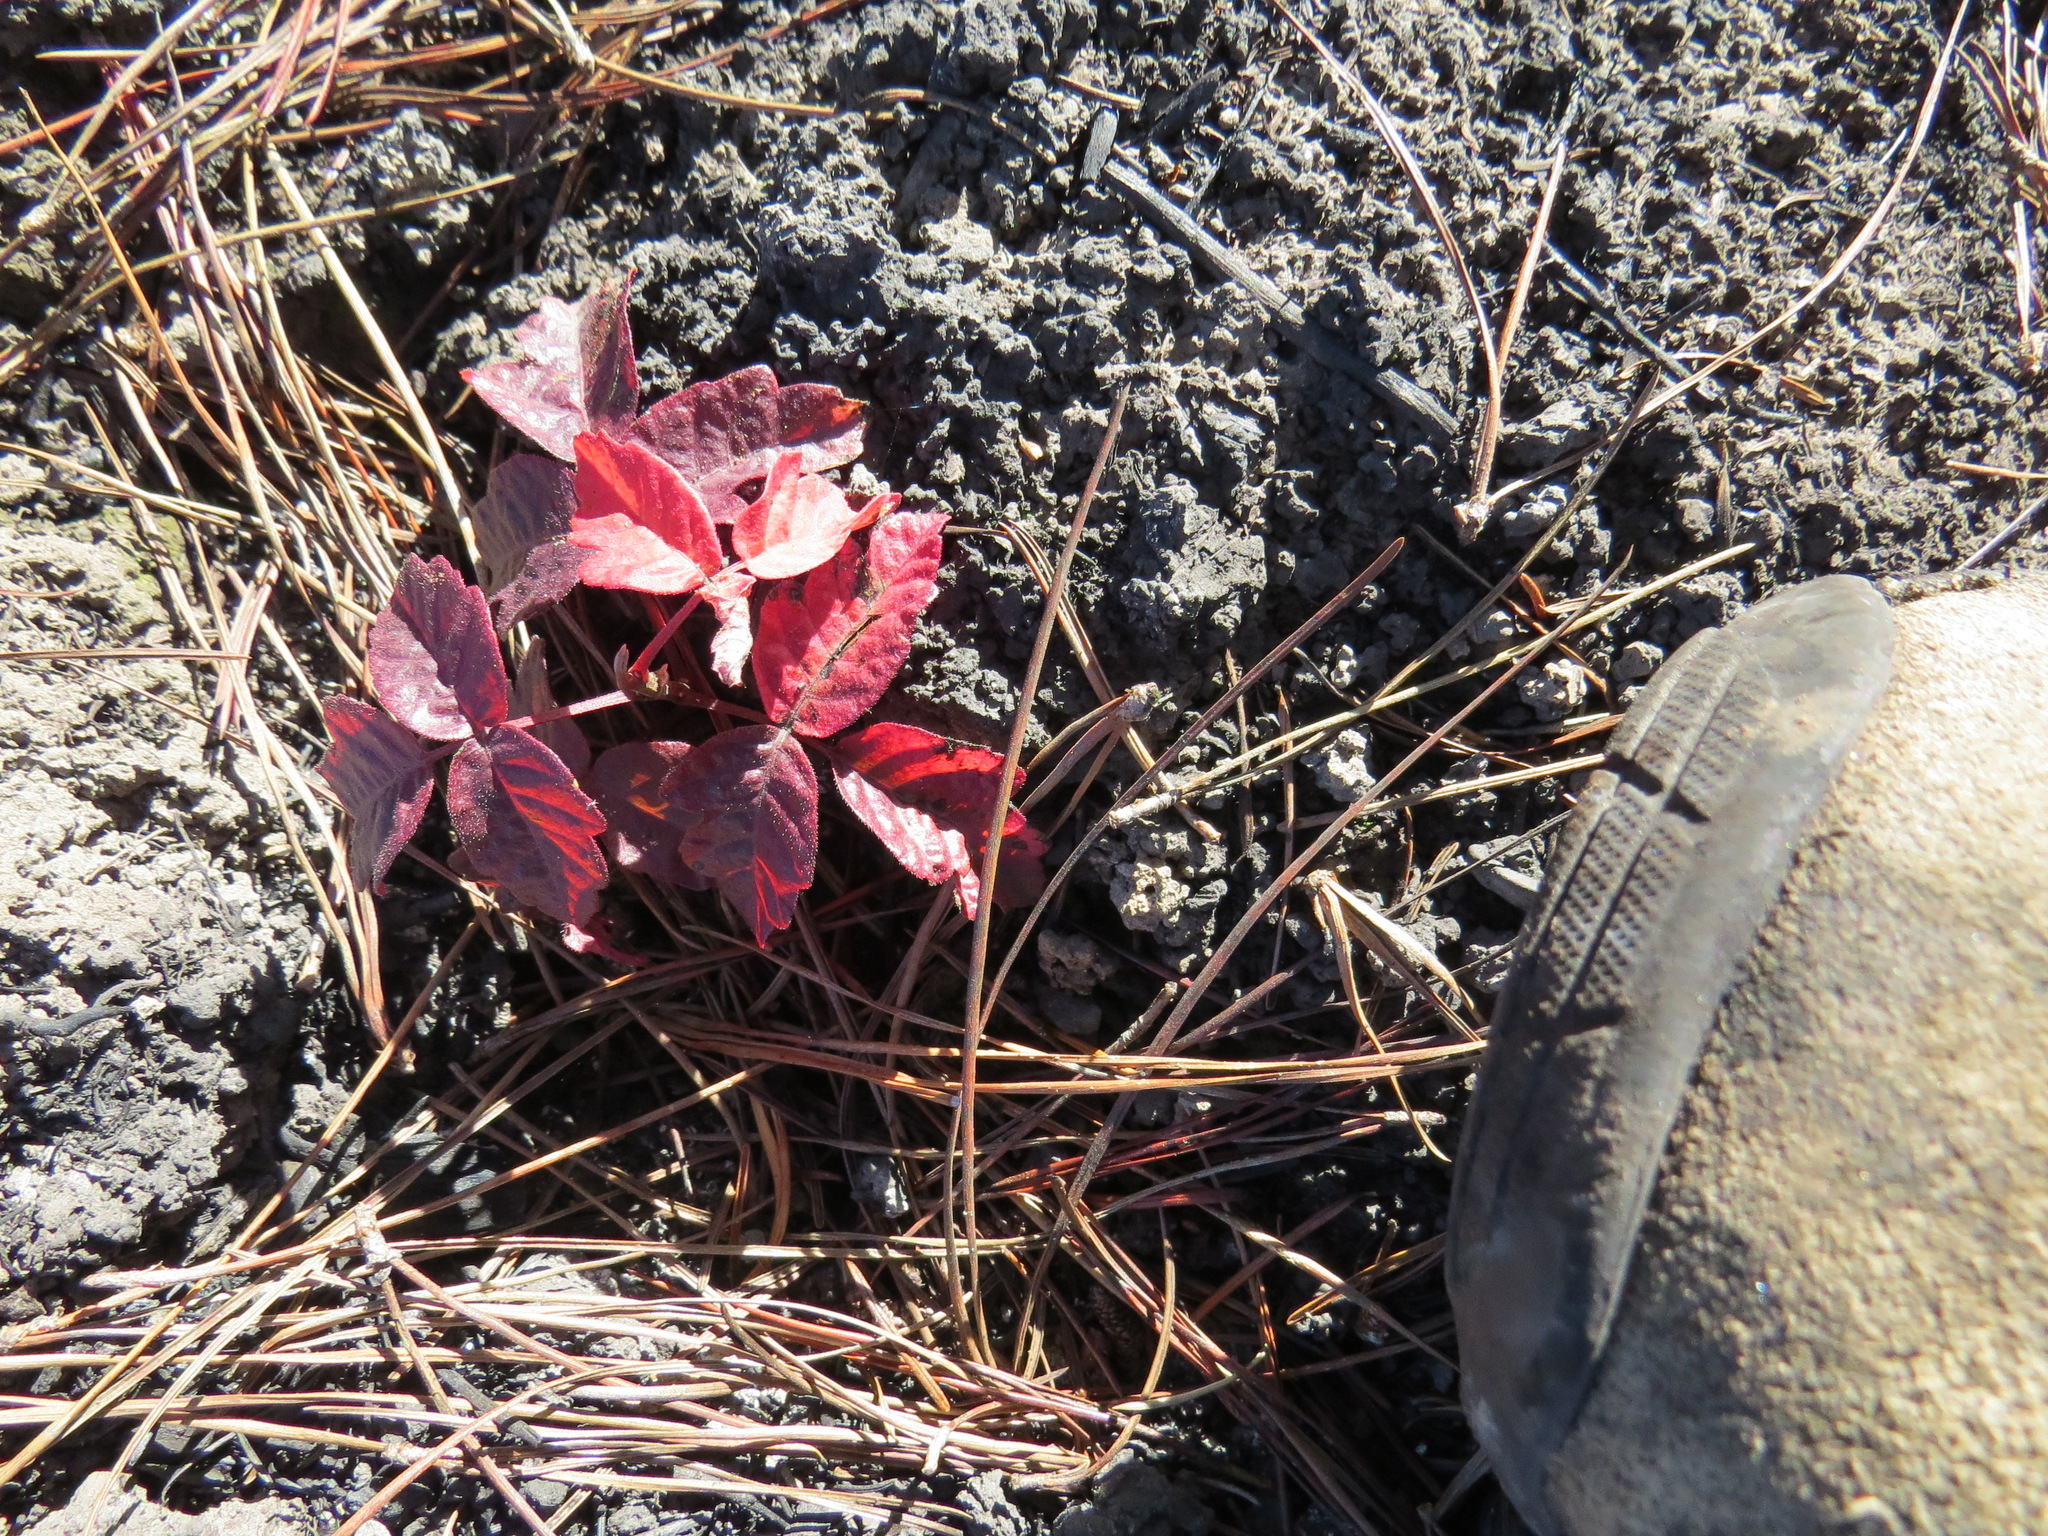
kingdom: Plantae
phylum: Tracheophyta
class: Magnoliopsida
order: Sapindales
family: Anacardiaceae
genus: Toxicodendron
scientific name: Toxicodendron diversilobum
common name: Pacific poison-oak
